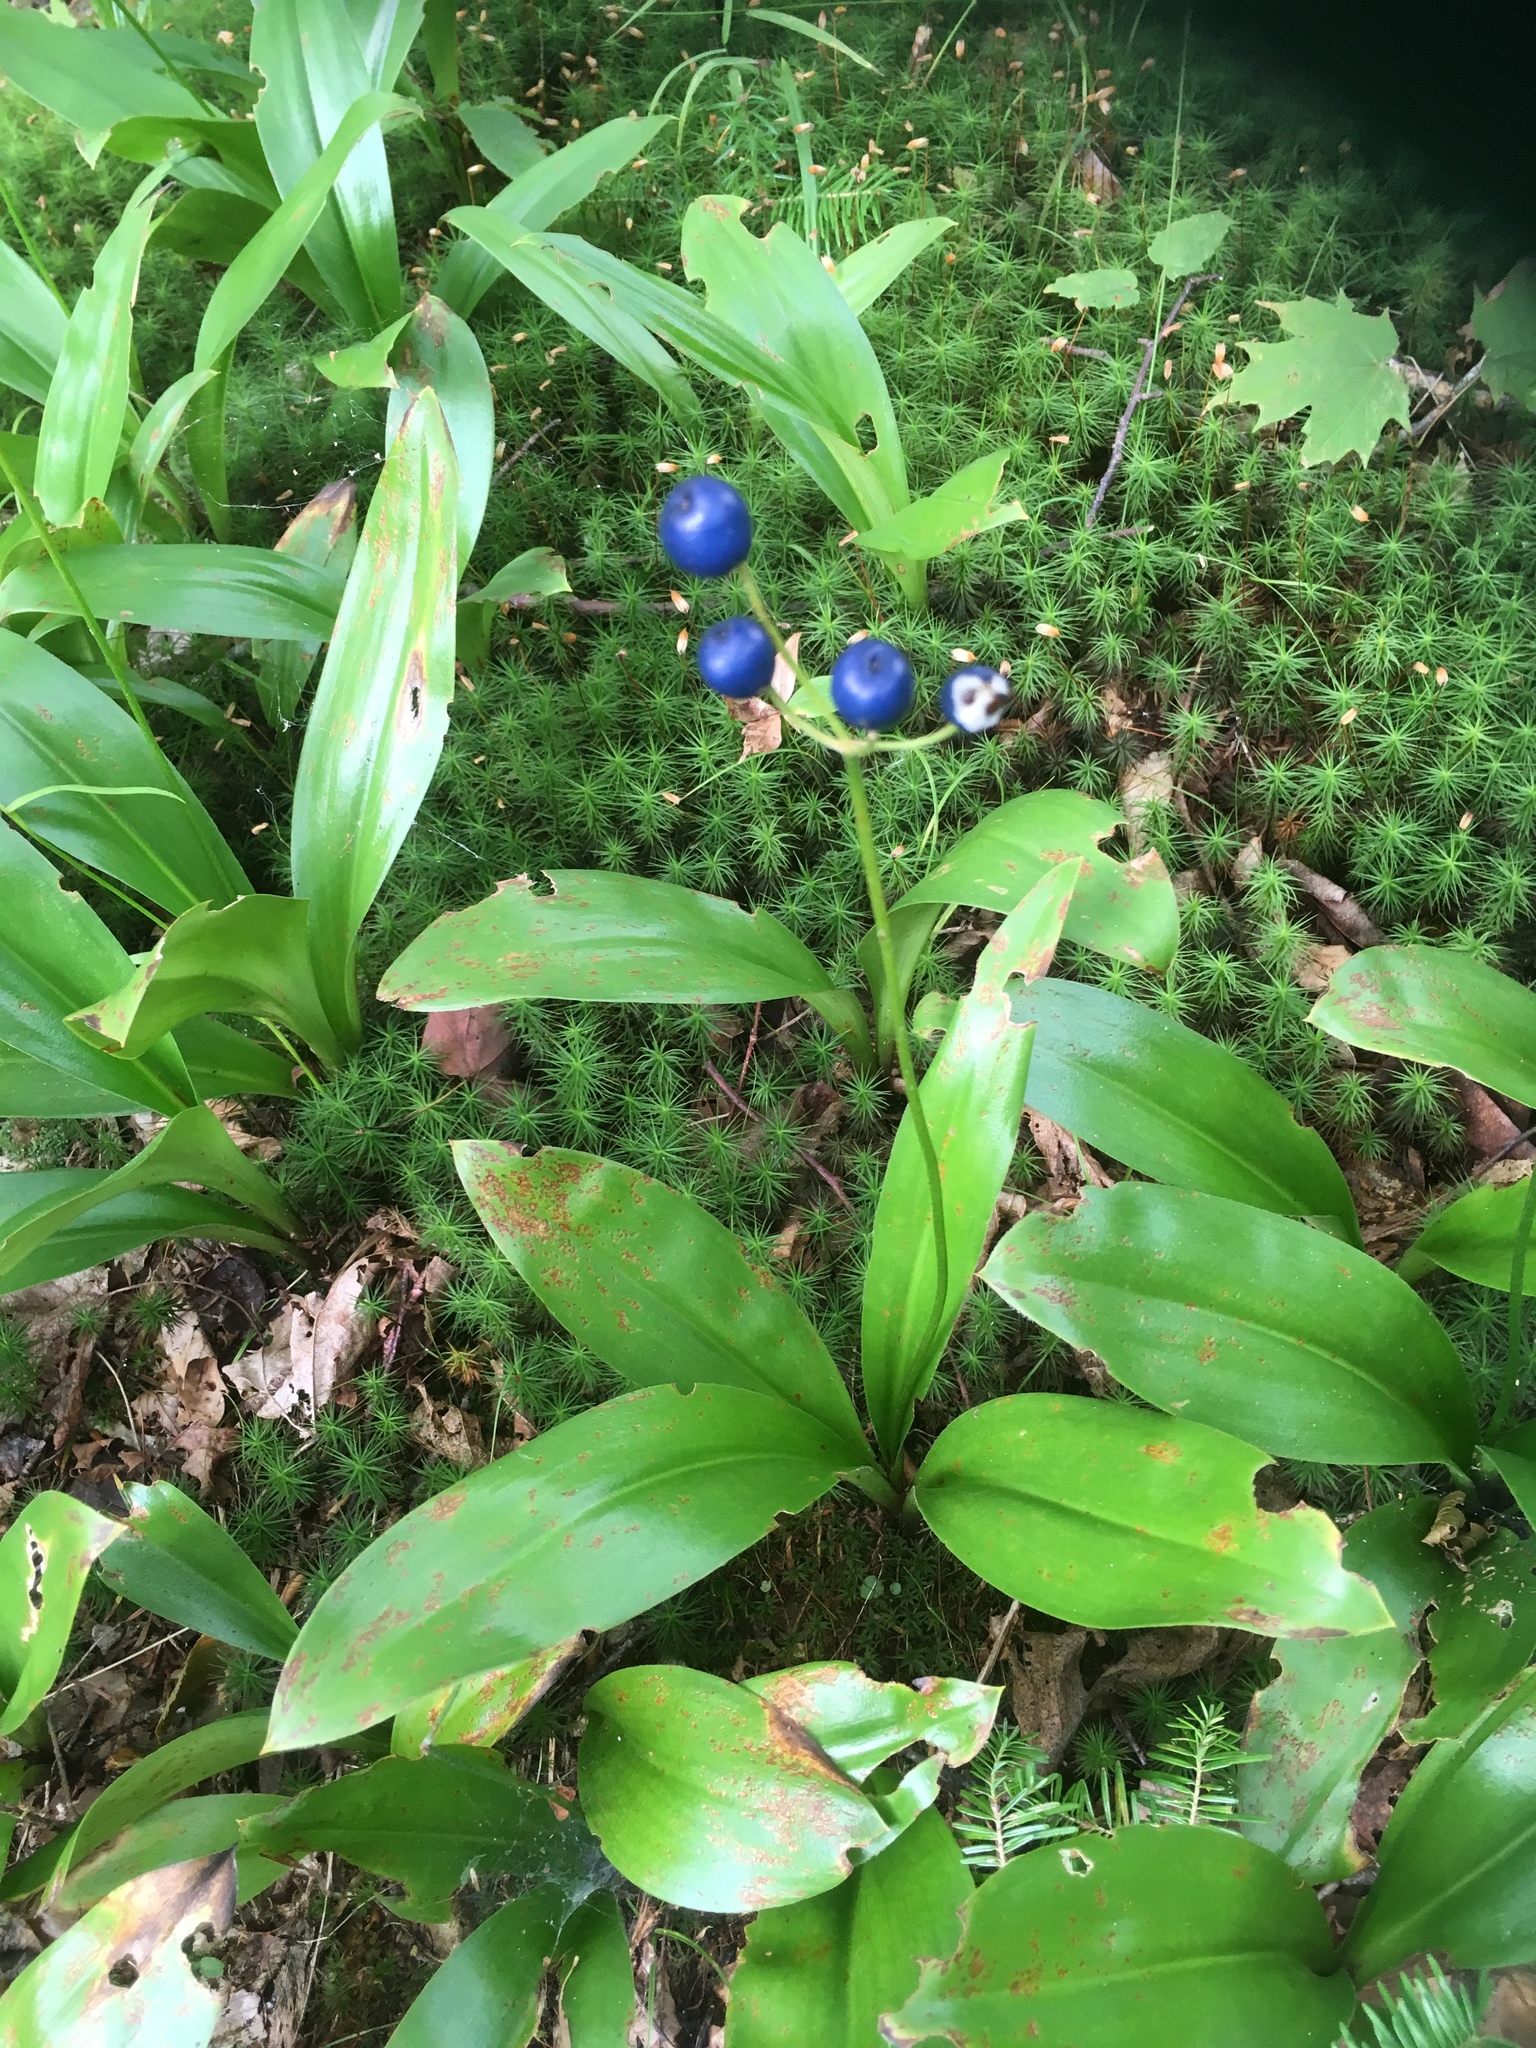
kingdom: Plantae
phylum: Tracheophyta
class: Liliopsida
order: Liliales
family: Liliaceae
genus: Clintonia
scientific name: Clintonia borealis
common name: Yellow clintonia
